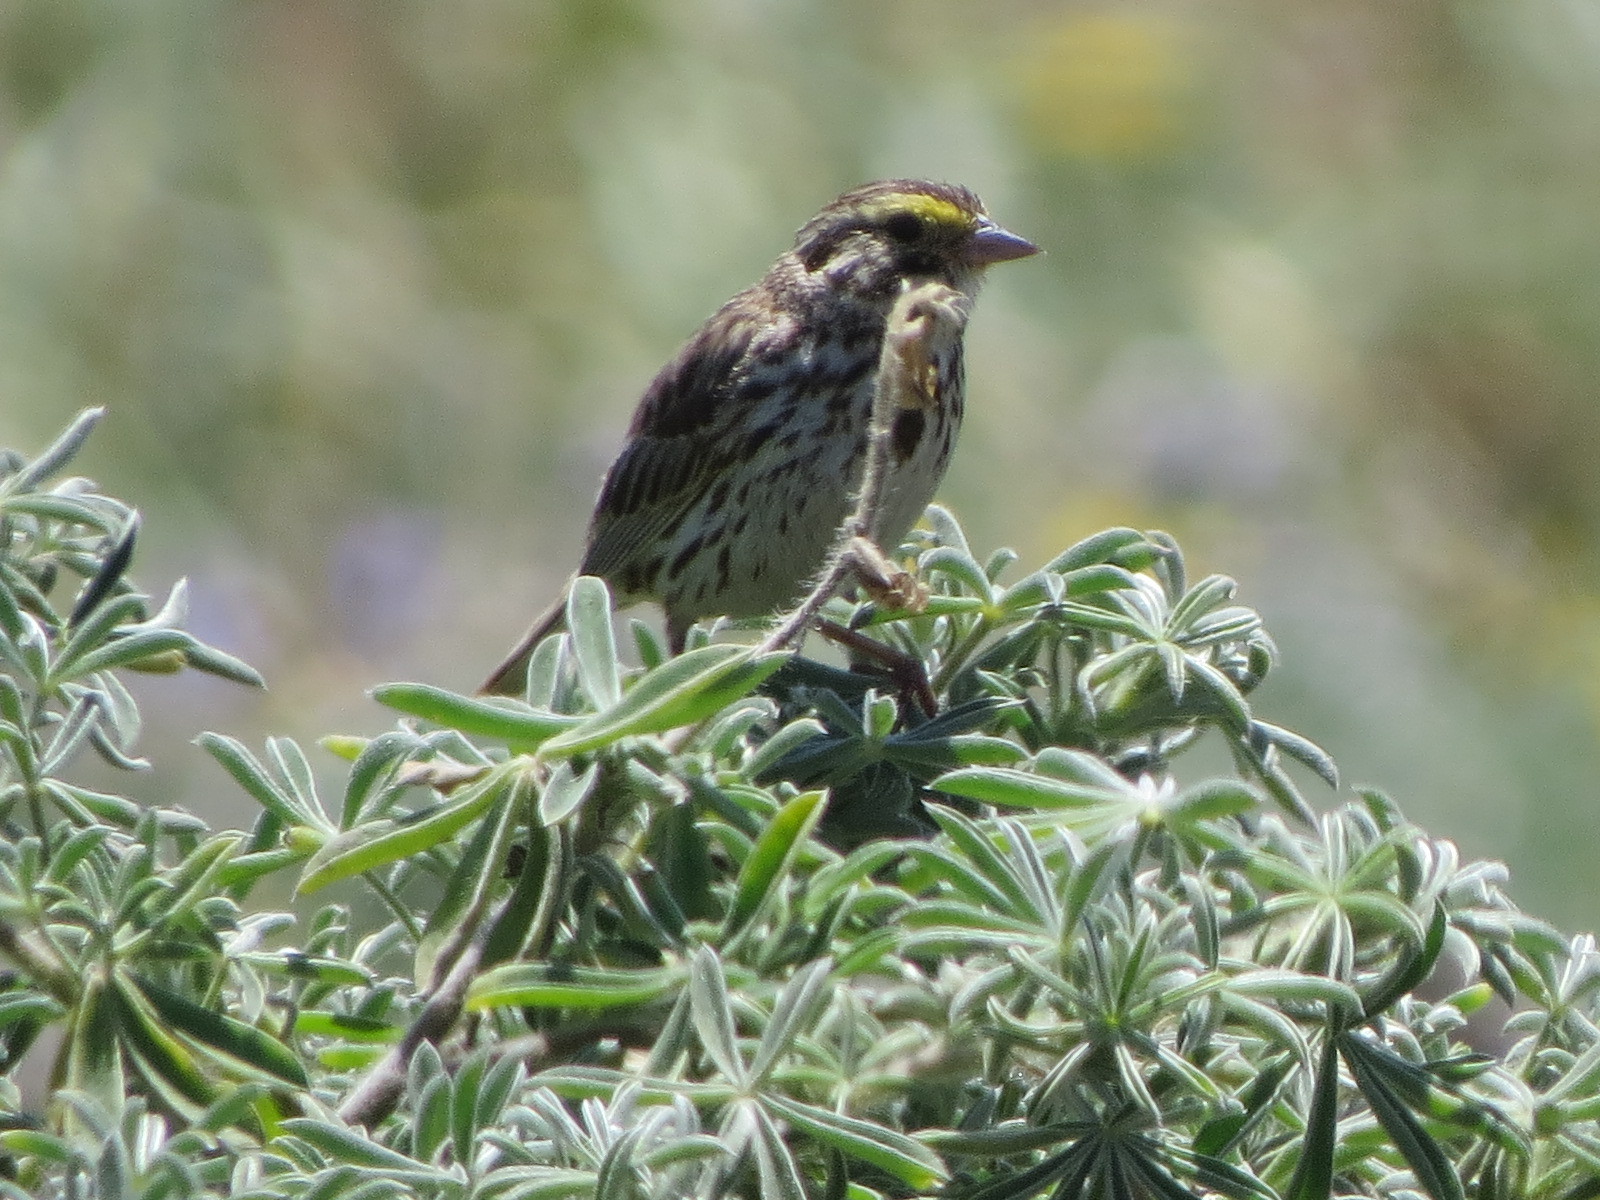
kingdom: Animalia
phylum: Chordata
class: Aves
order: Passeriformes
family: Passerellidae
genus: Passerculus
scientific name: Passerculus sandwichensis
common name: Savannah sparrow
